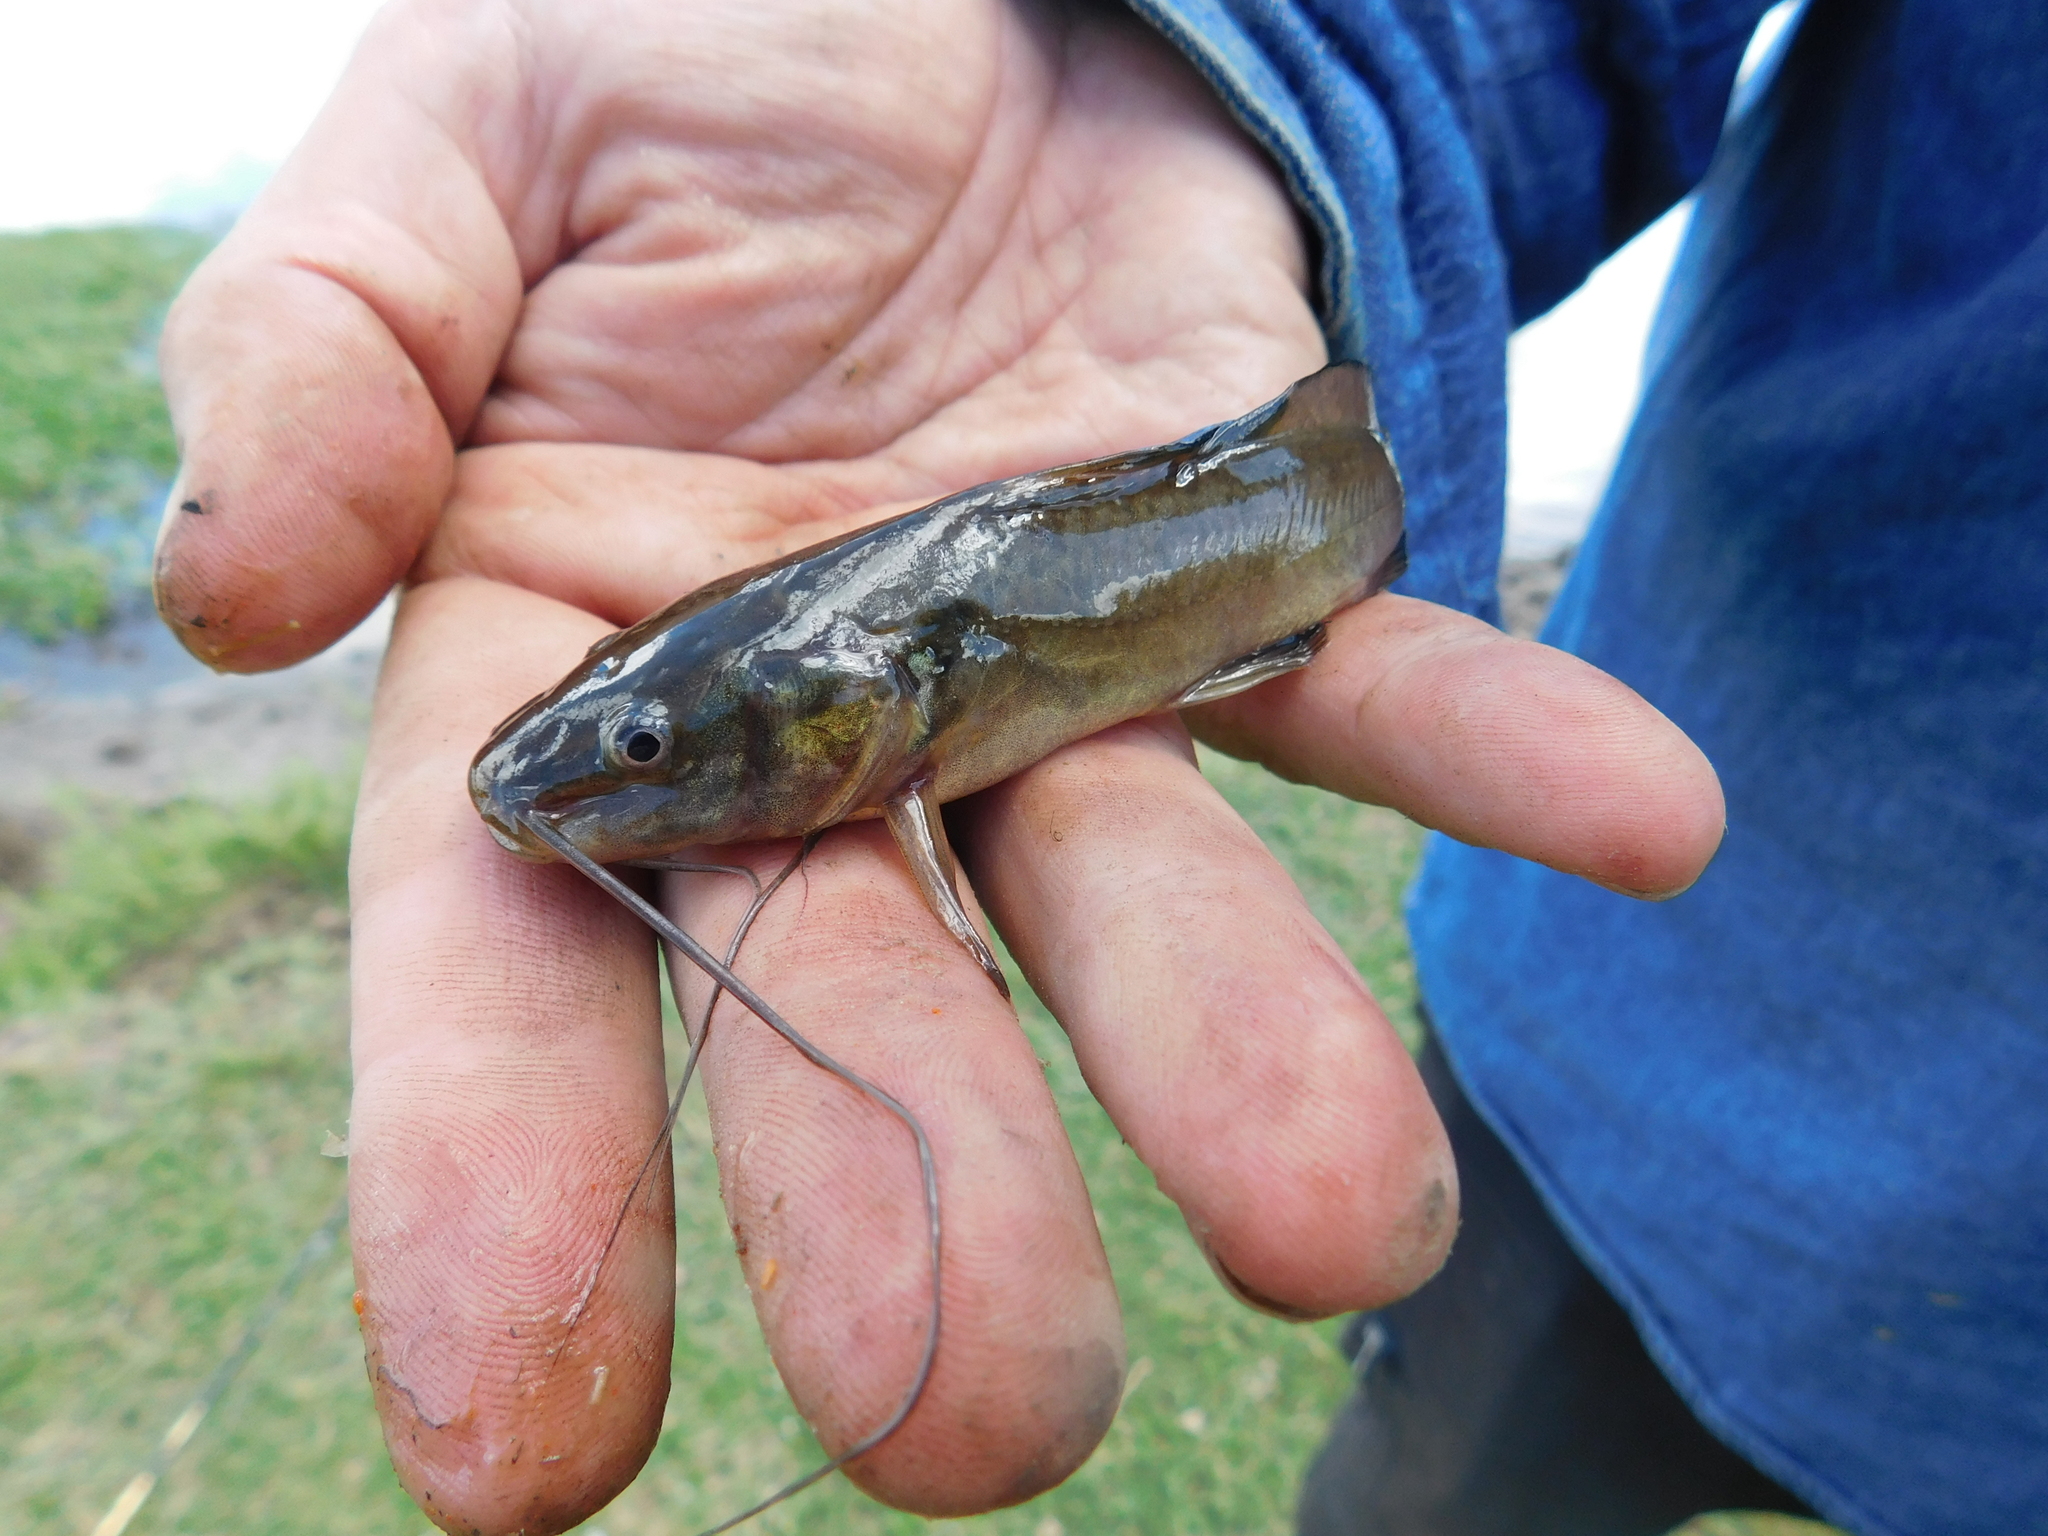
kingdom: Animalia
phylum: Chordata
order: Siluriformes
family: Heptapteridae
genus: Rhamdia
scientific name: Rhamdia quelen
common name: Catfish
